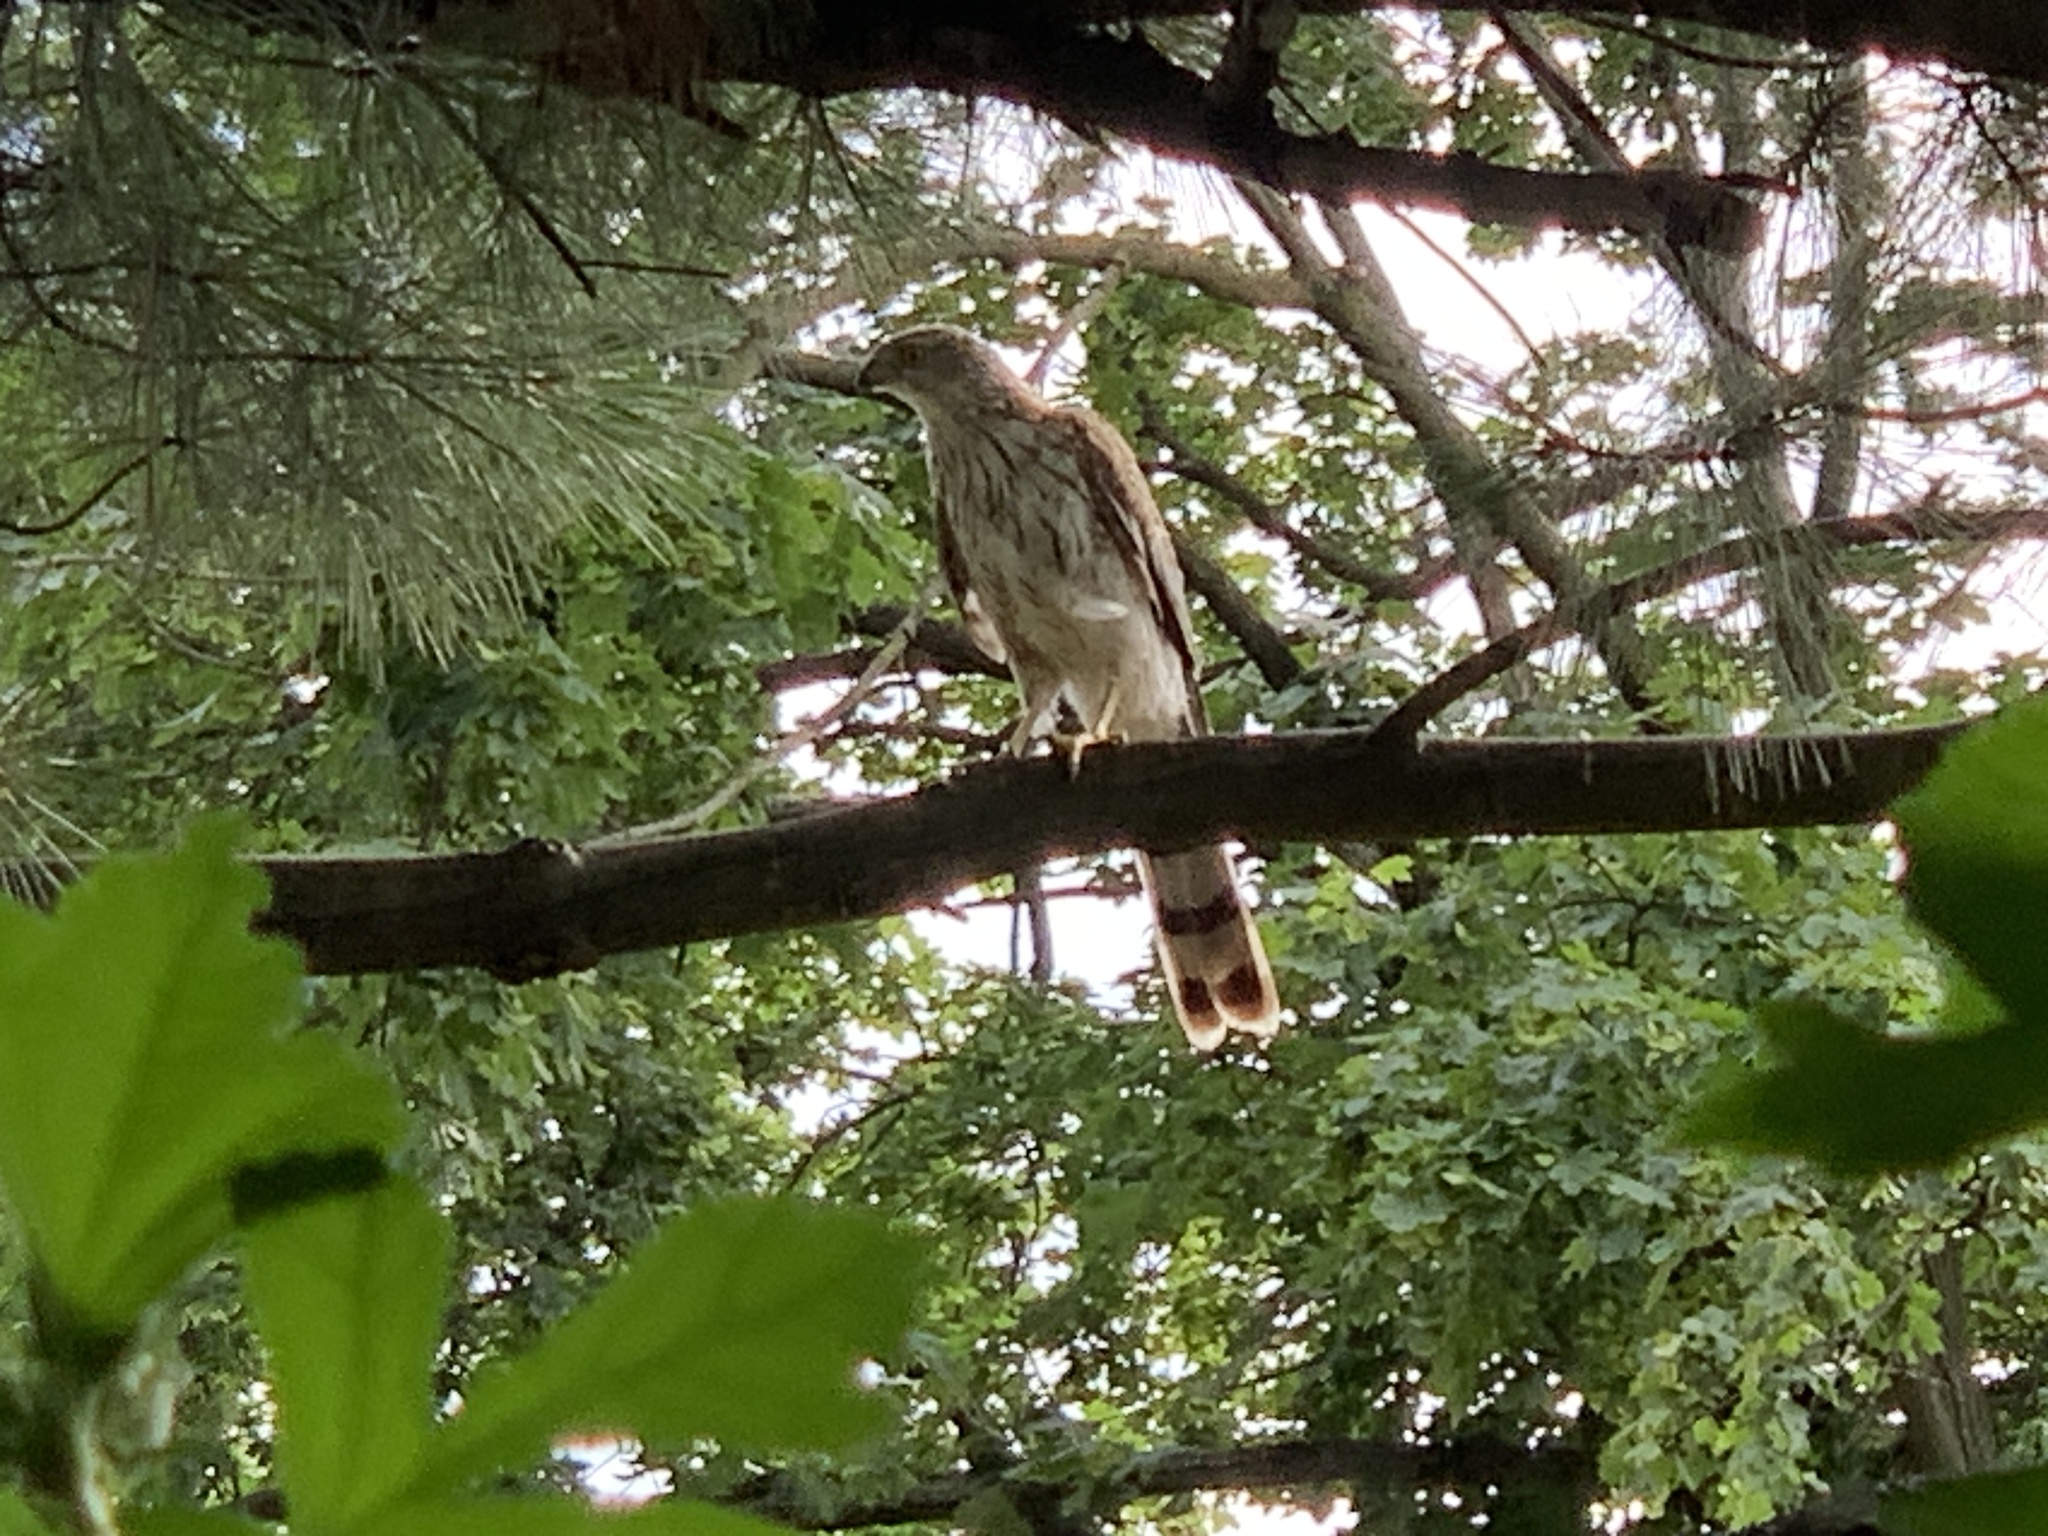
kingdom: Animalia
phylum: Chordata
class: Aves
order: Accipitriformes
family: Accipitridae
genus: Accipiter
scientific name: Accipiter cooperii
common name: Cooper's hawk
